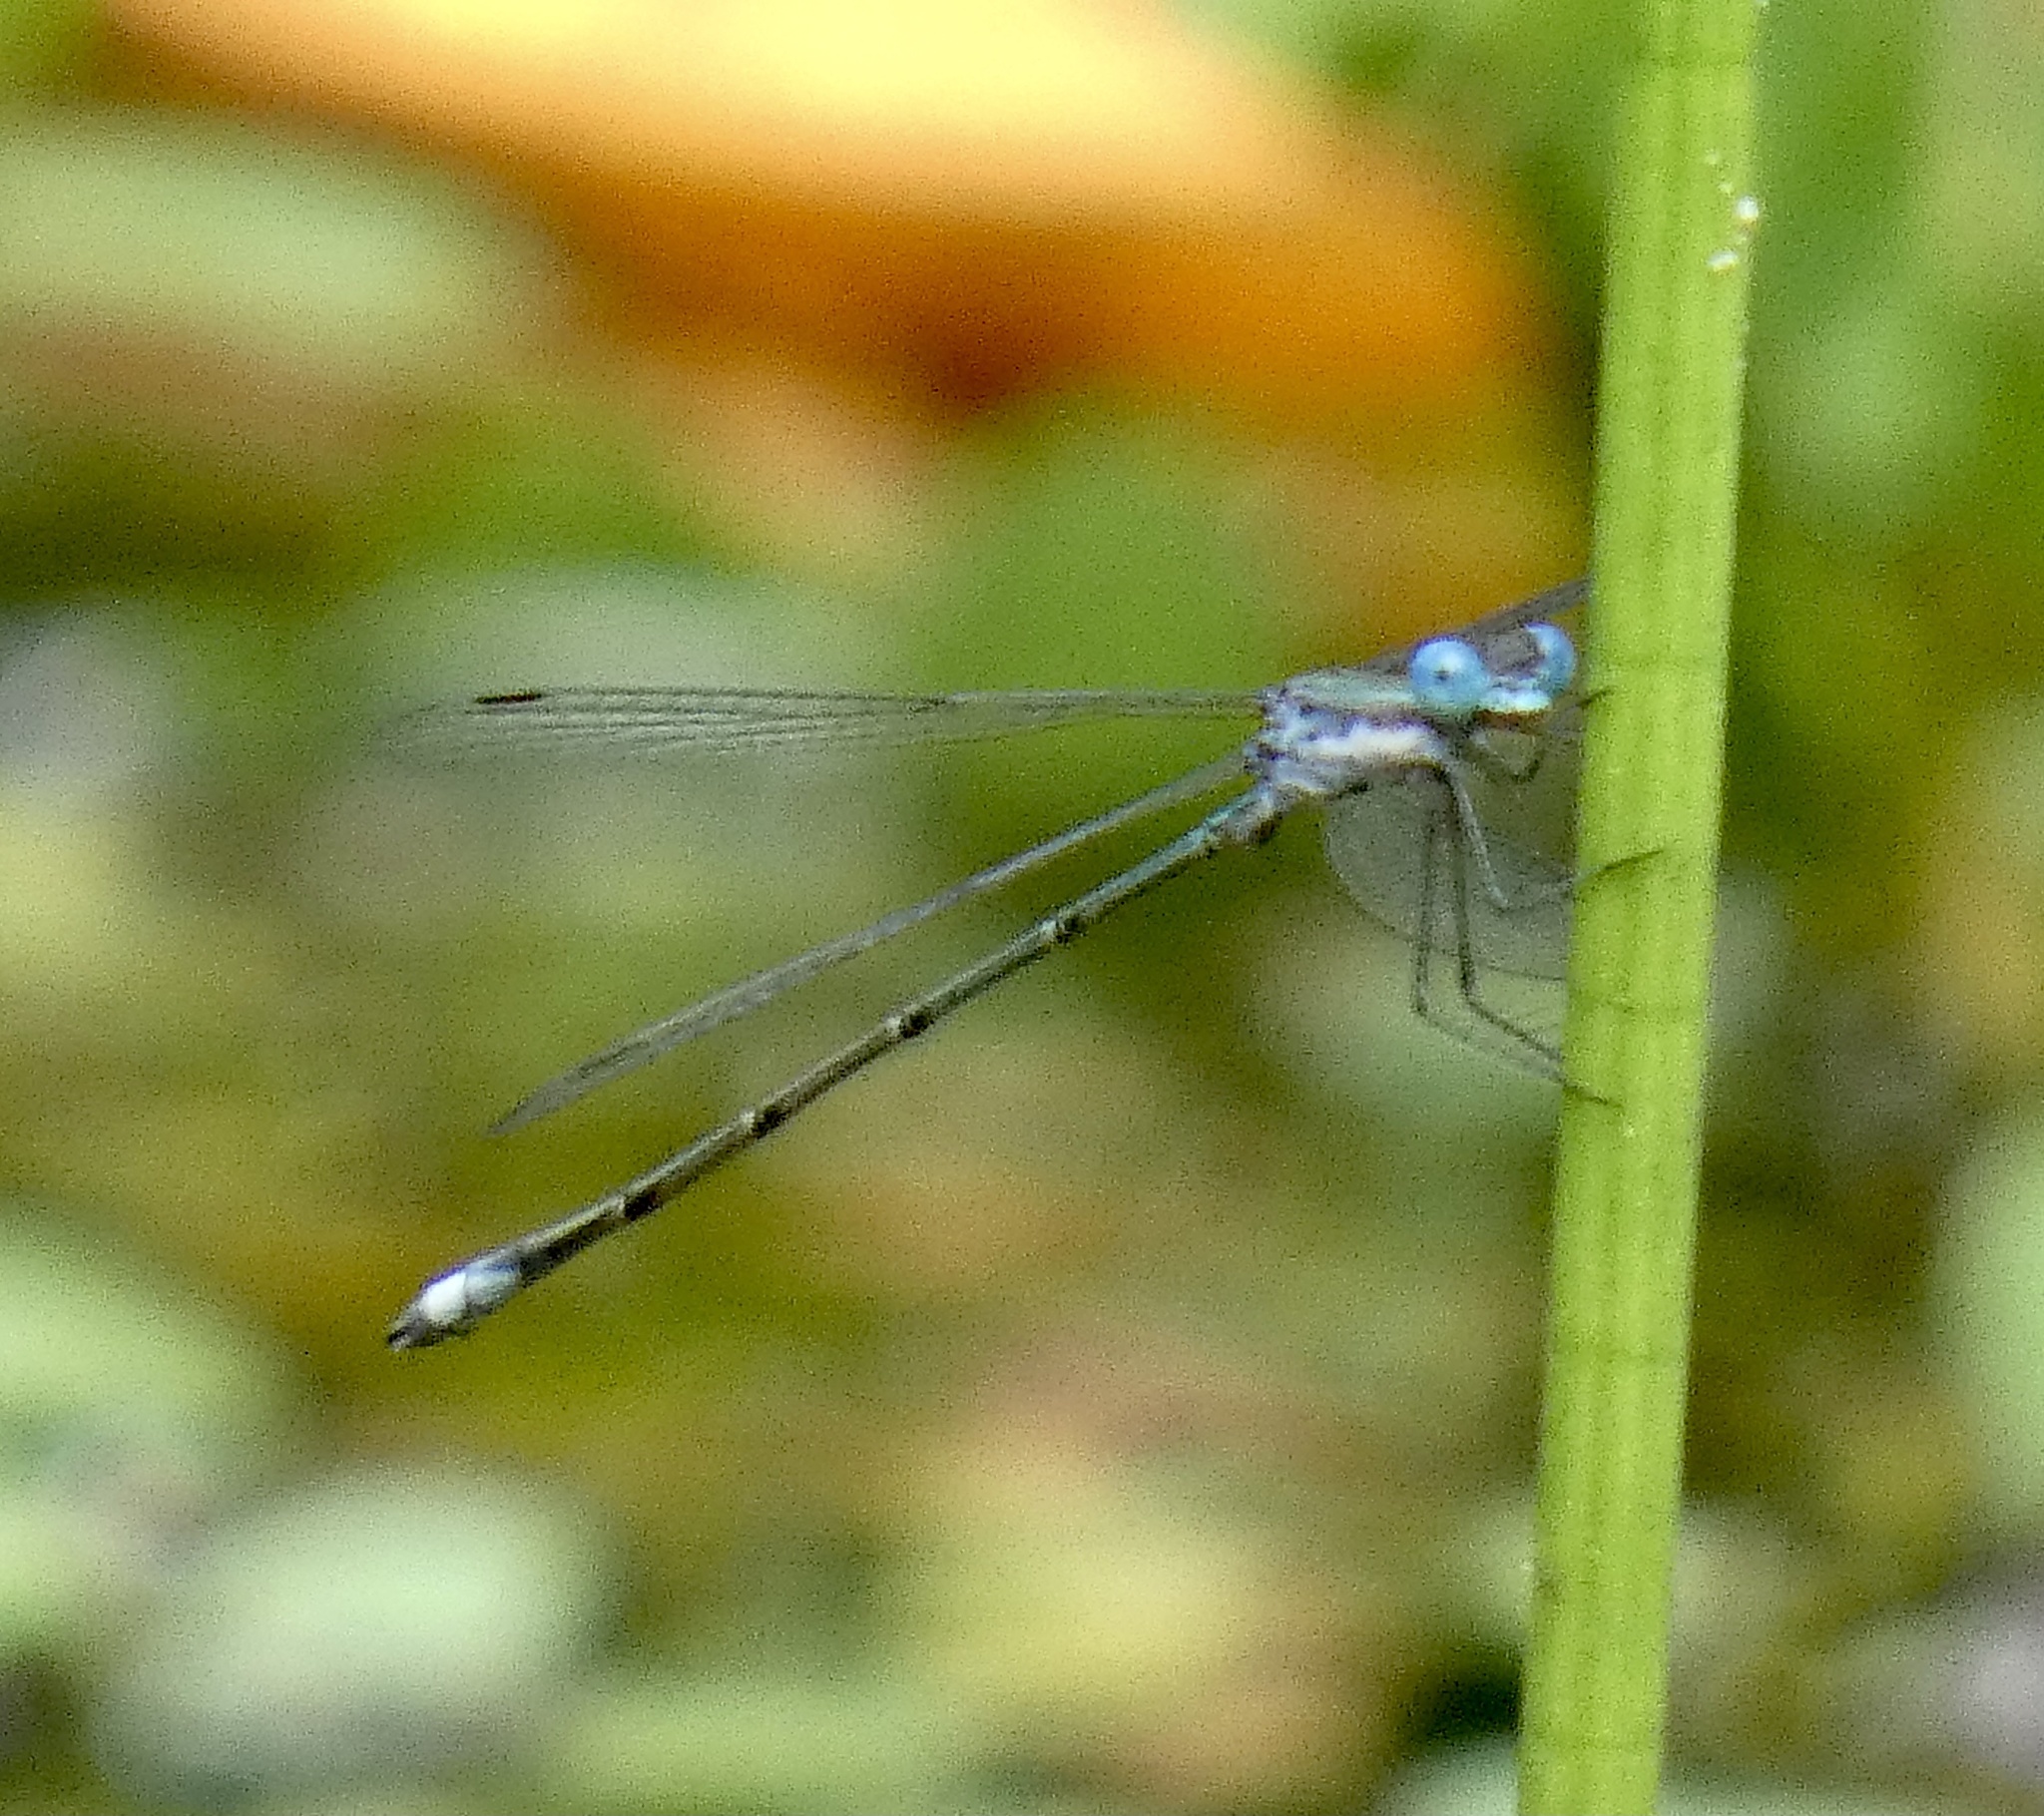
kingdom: Animalia
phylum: Arthropoda
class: Insecta
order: Odonata
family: Lestidae
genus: Lestes
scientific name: Lestes forficula
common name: Rainpool spreadwing
